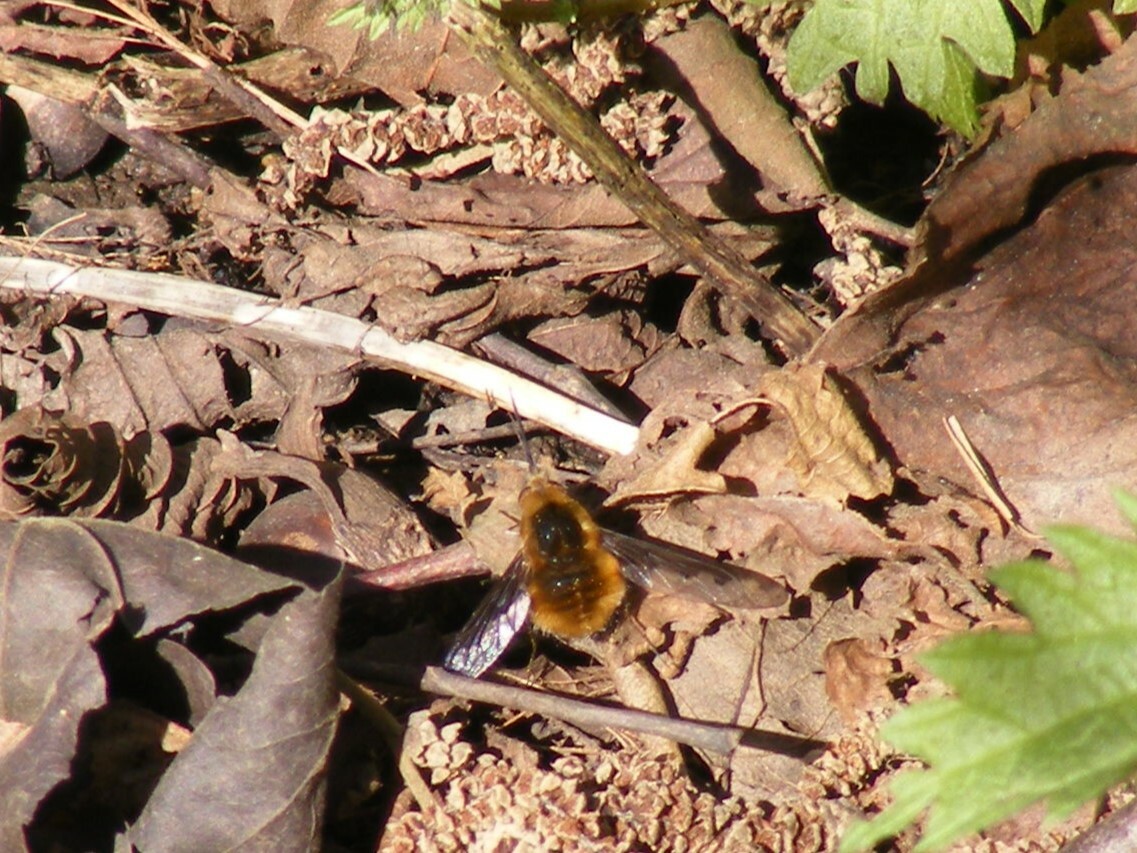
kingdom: Animalia
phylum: Arthropoda
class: Insecta
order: Diptera
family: Bombyliidae
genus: Bombylius
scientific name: Bombylius major
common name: Bee fly
